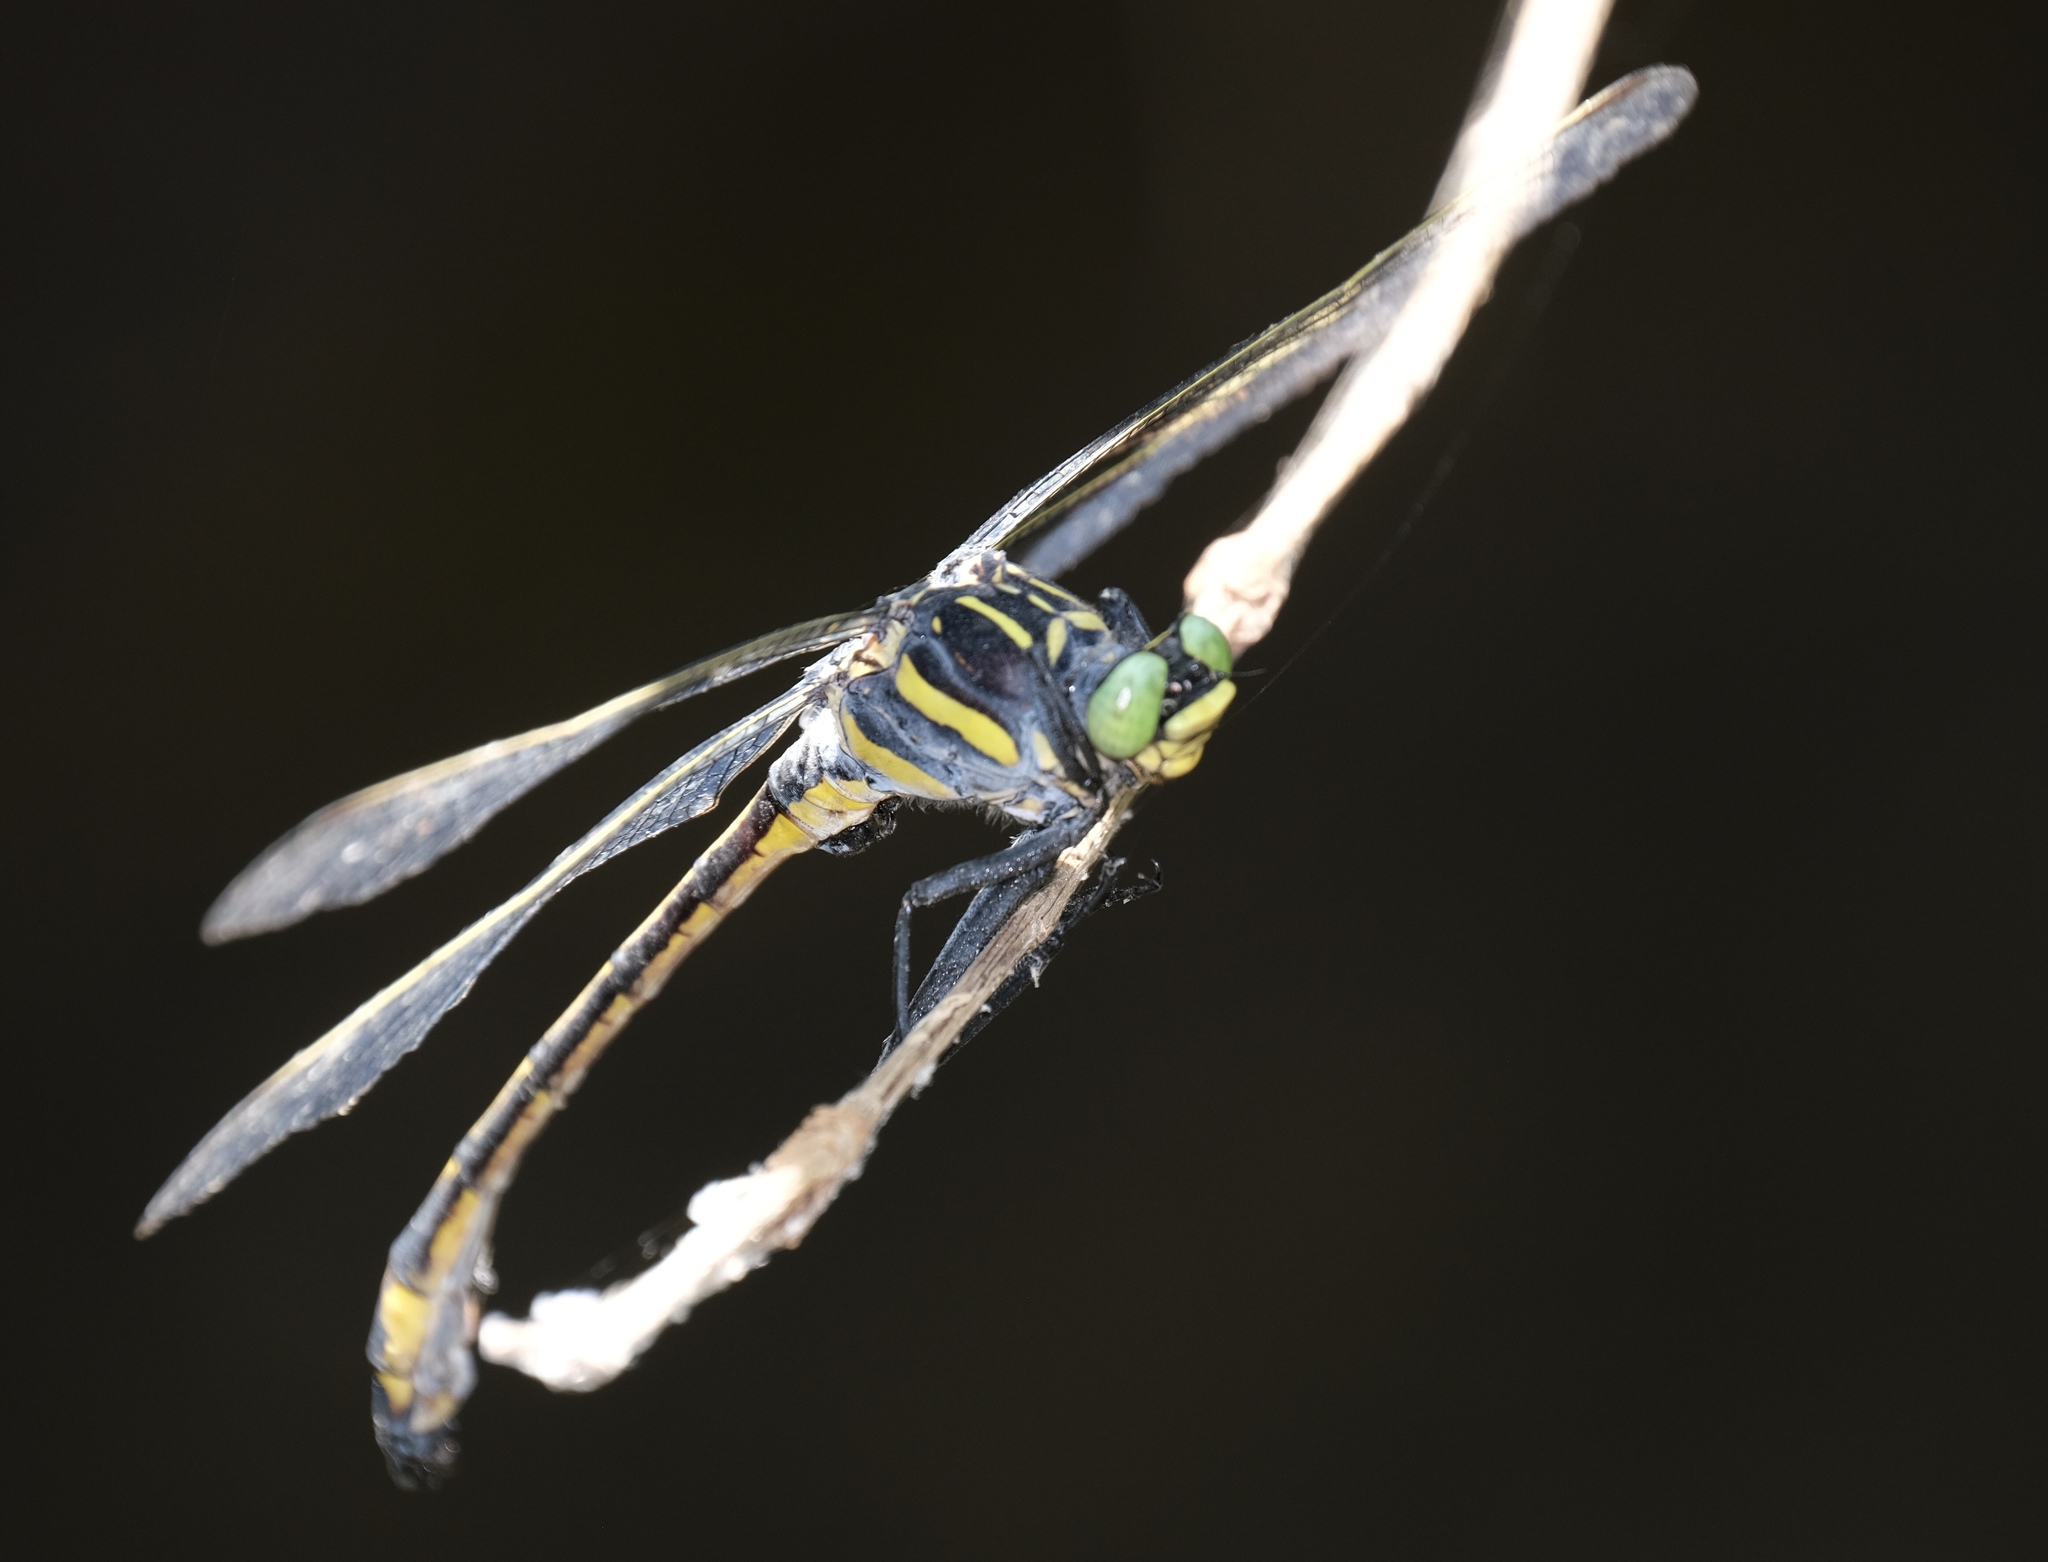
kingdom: Animalia
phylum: Arthropoda
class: Insecta
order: Odonata
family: Gomphidae
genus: Hagenius
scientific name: Hagenius brevistylus
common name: Dragonhunter
